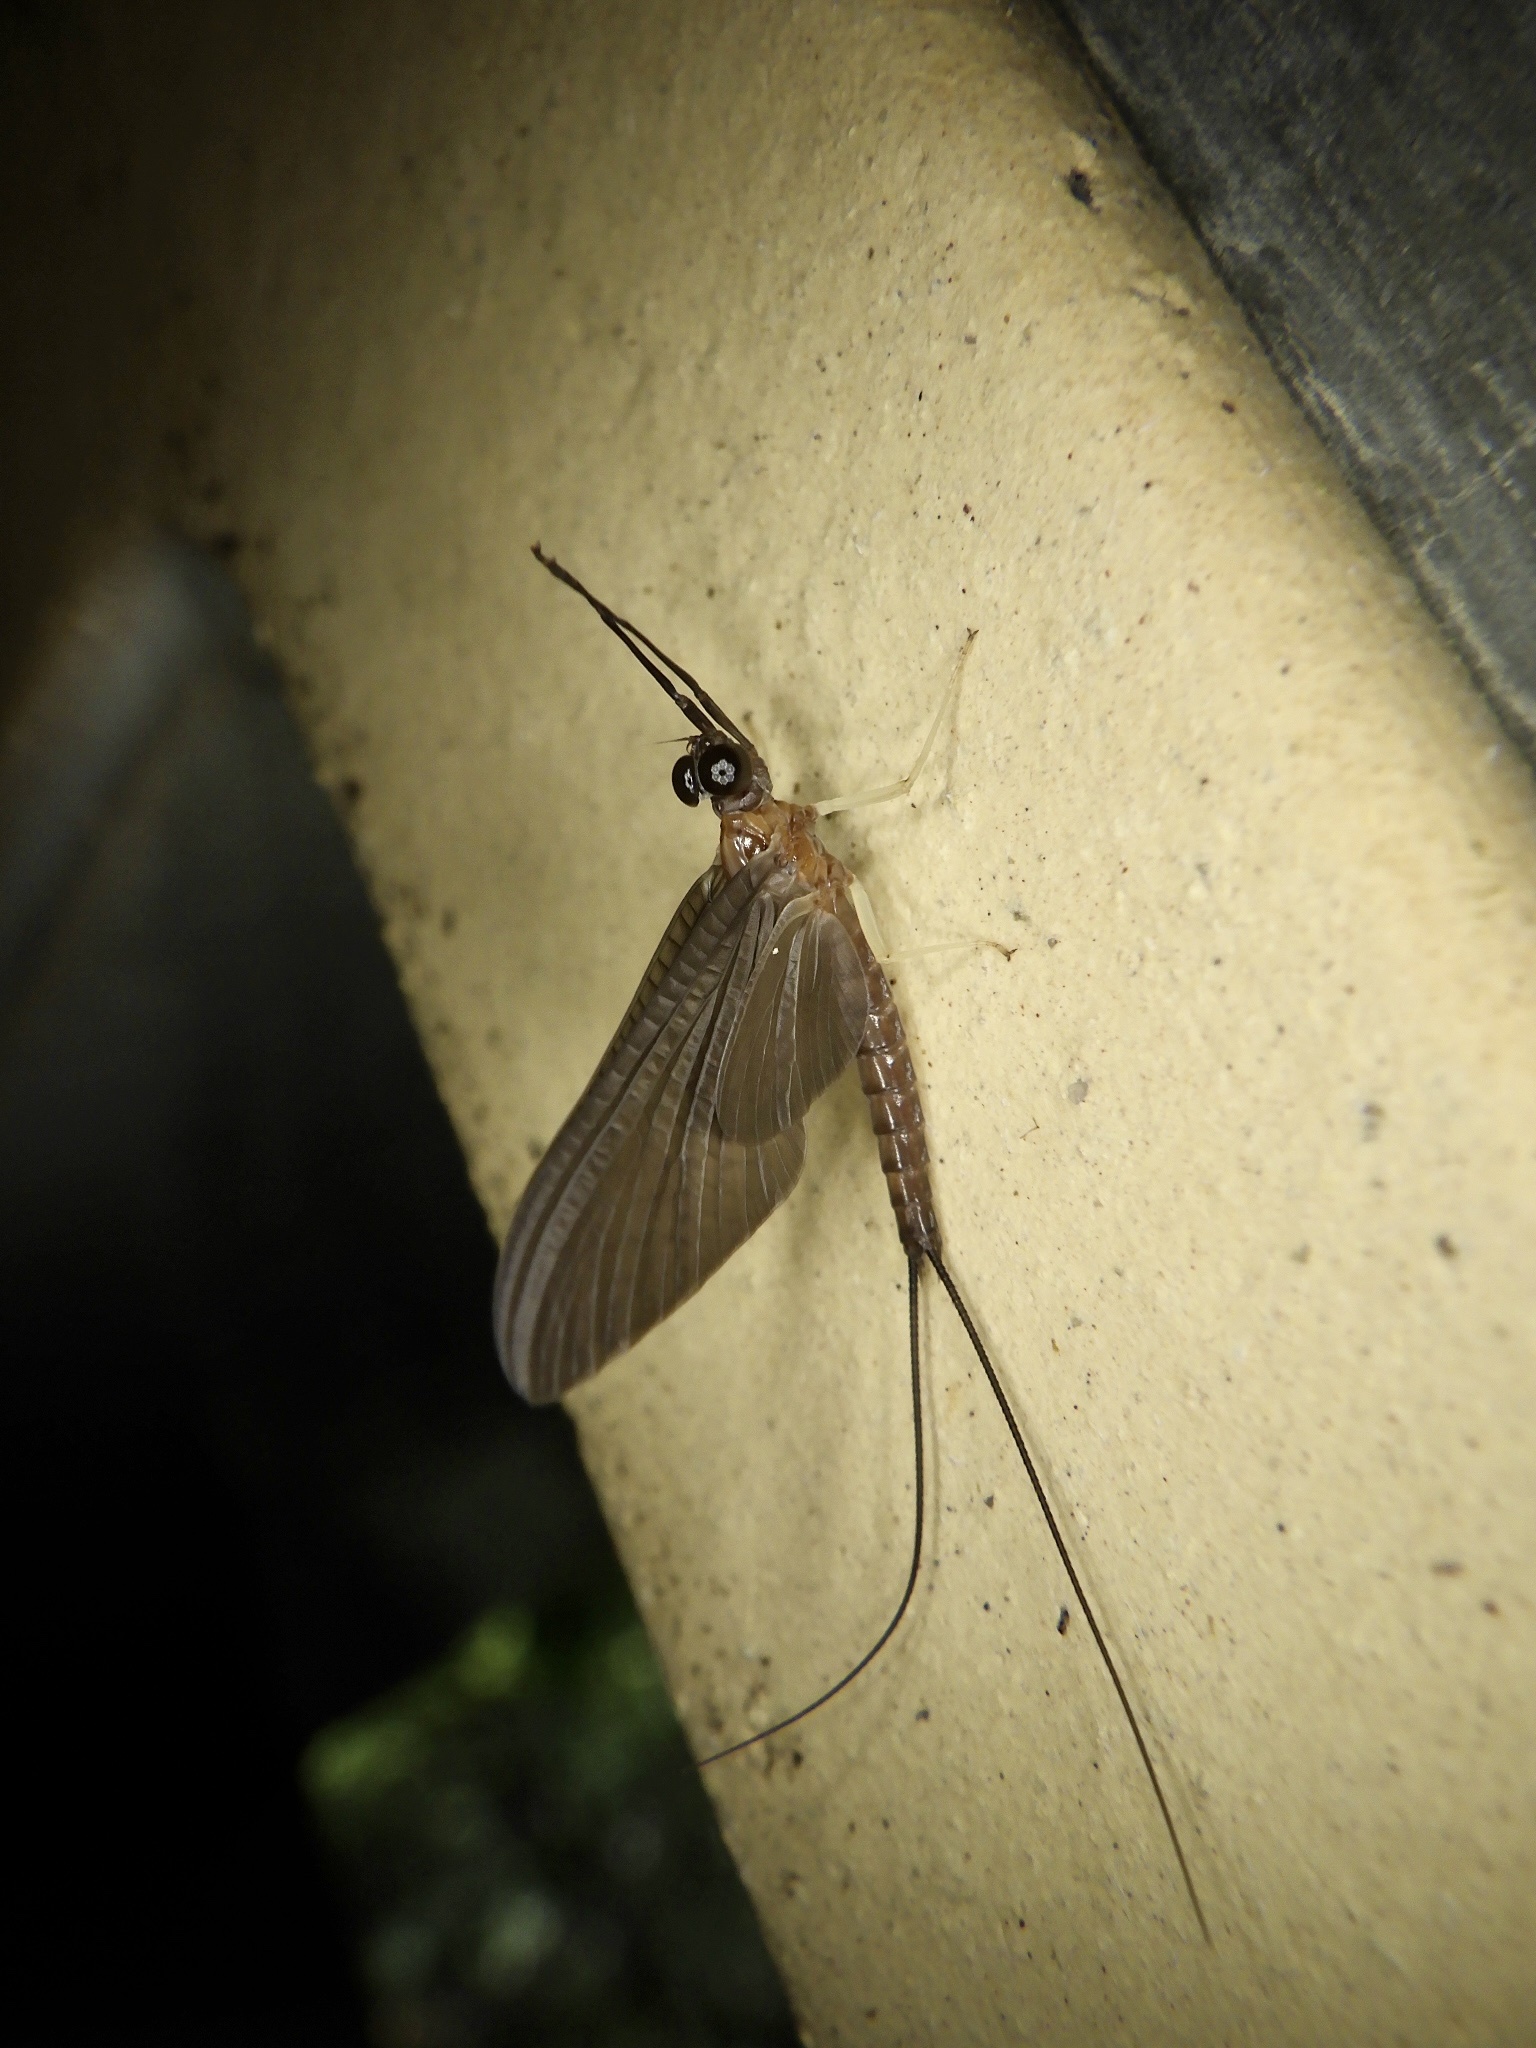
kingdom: Animalia
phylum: Arthropoda
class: Insecta
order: Ephemeroptera
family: Isonychiidae
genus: Isonychia
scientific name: Isonychia japonica
